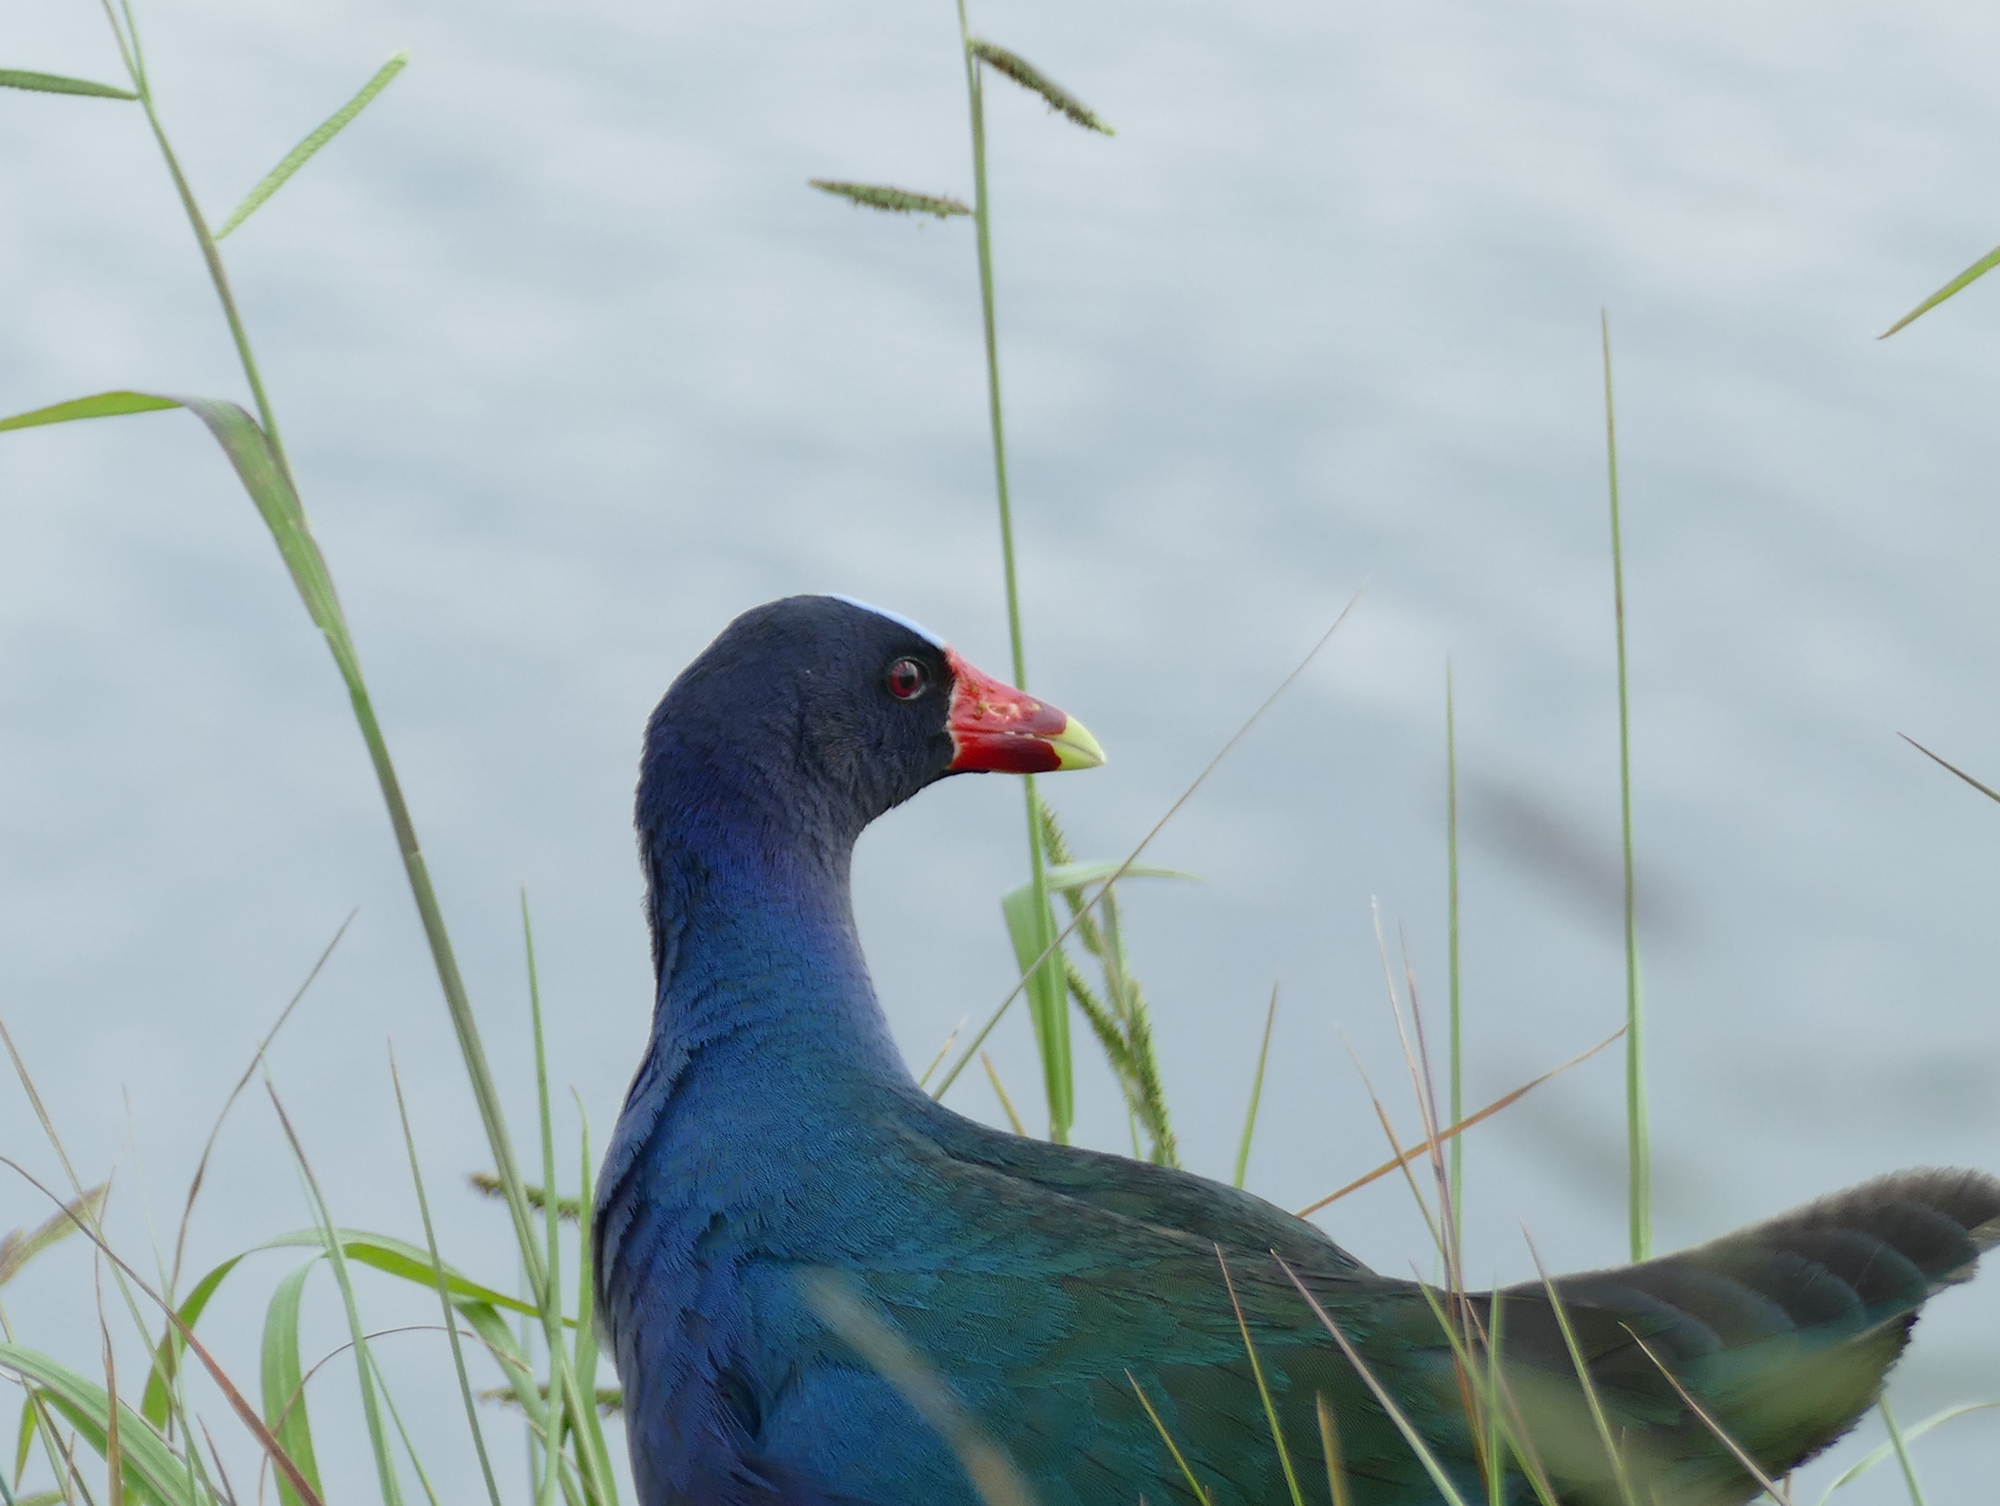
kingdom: Animalia
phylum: Chordata
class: Aves
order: Gruiformes
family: Rallidae
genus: Porphyrio
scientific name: Porphyrio martinica
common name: Purple gallinule
